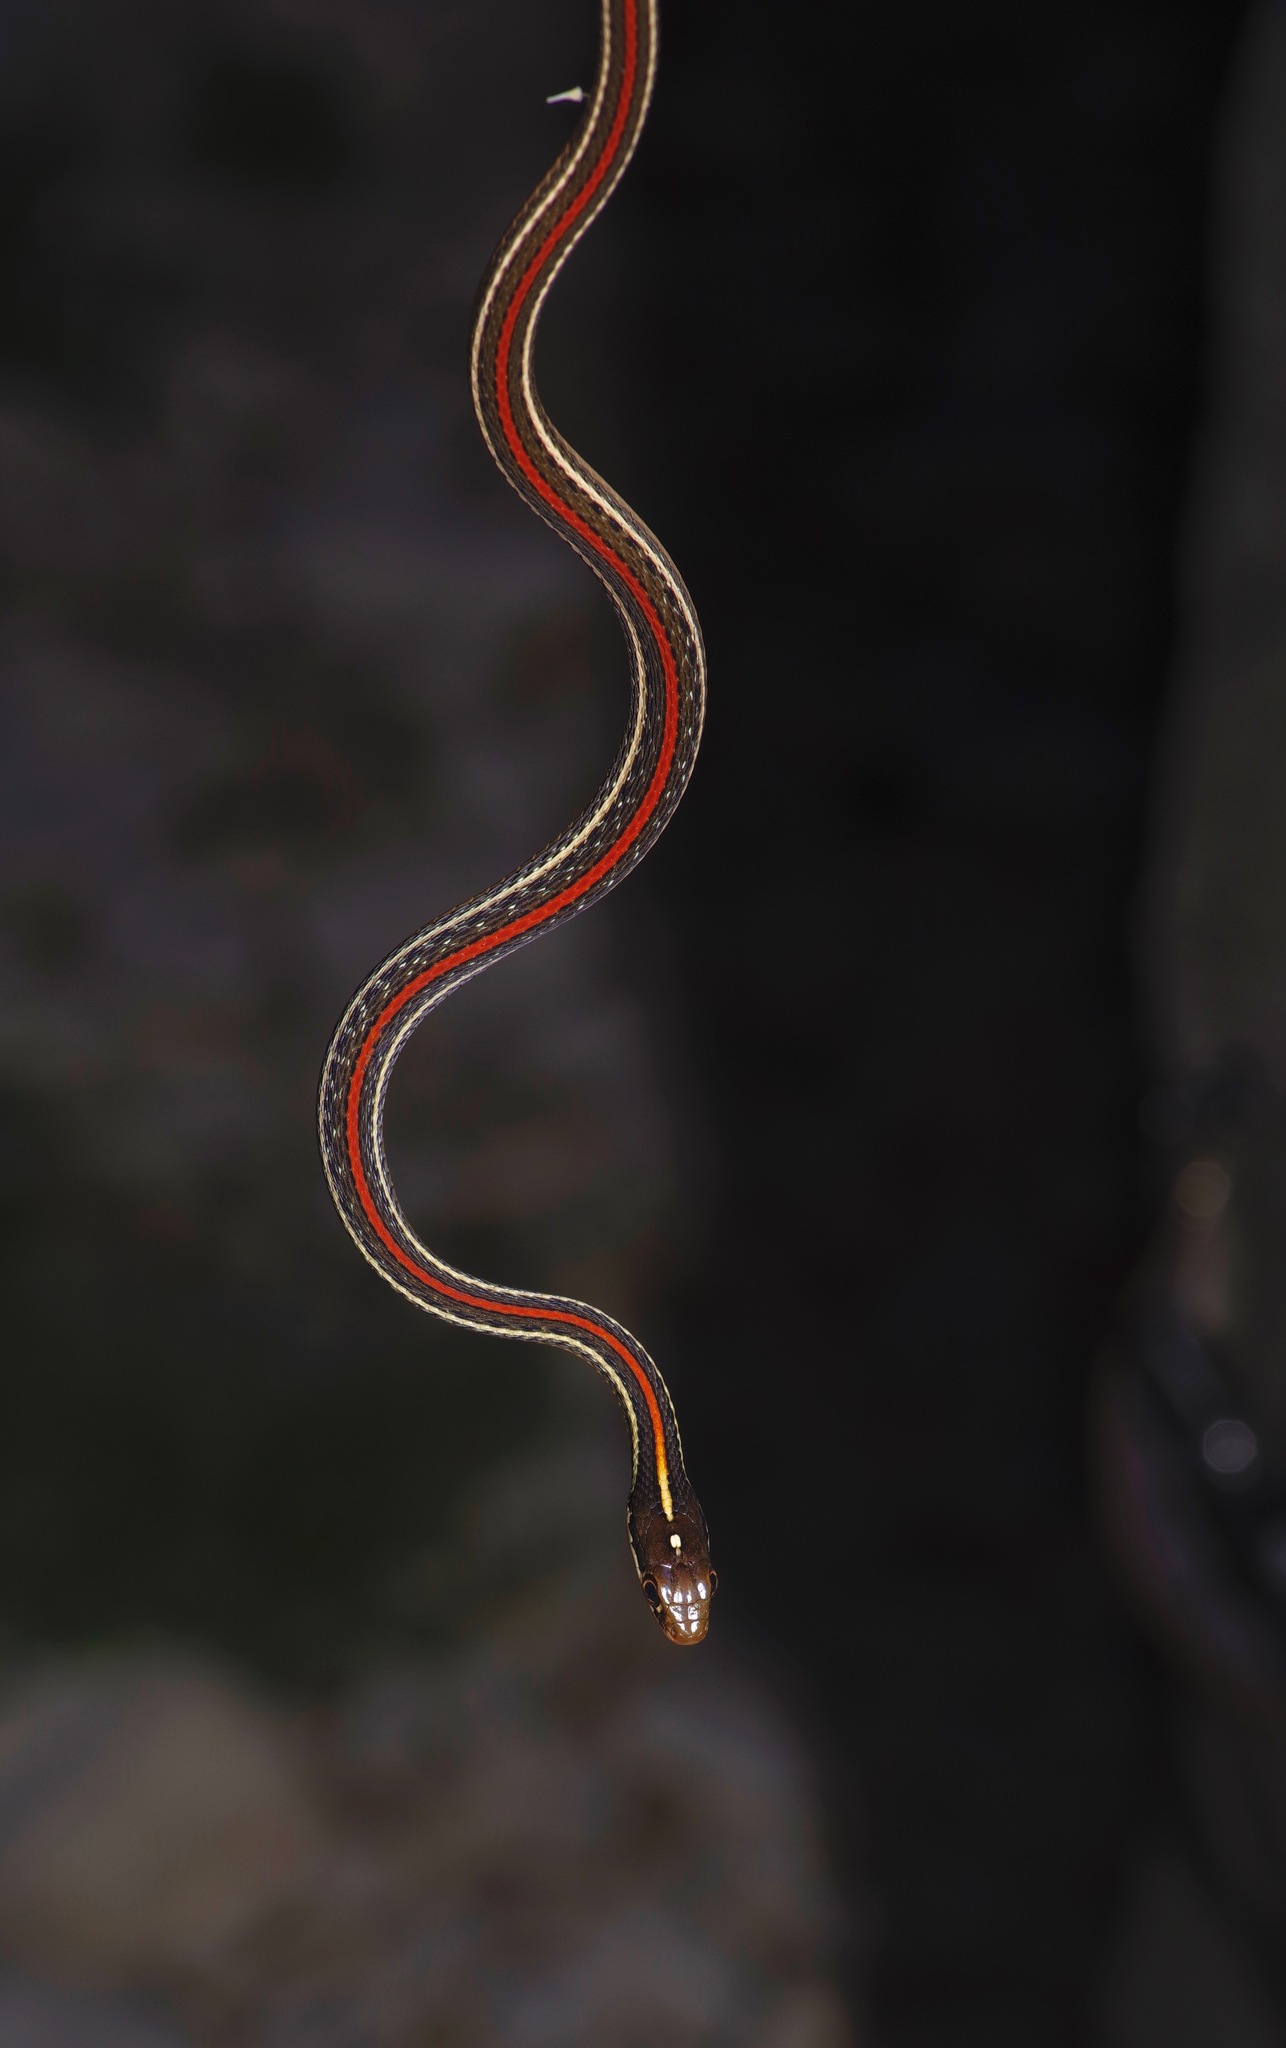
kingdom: Animalia
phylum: Chordata
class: Squamata
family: Colubridae
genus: Thamnophis
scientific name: Thamnophis proximus
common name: Western ribbon snake
